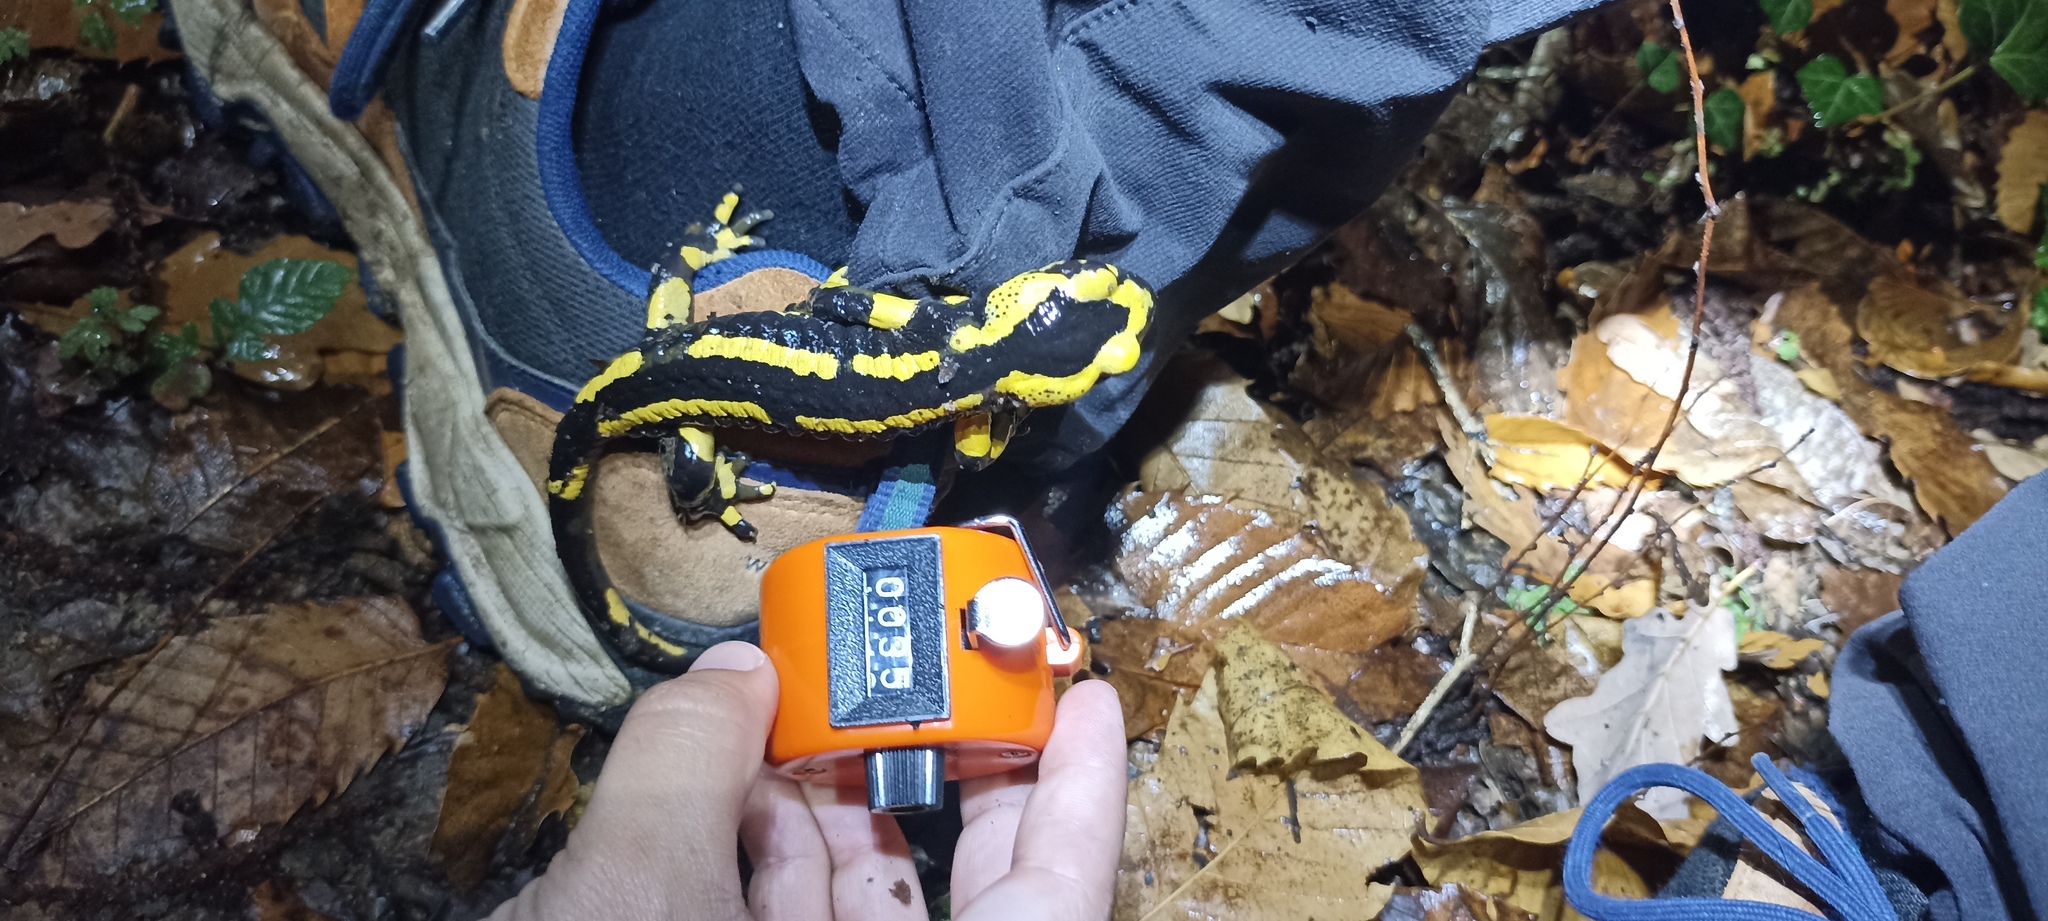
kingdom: Animalia
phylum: Chordata
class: Amphibia
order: Caudata
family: Salamandridae
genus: Salamandra
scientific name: Salamandra salamandra
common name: Fire salamander
